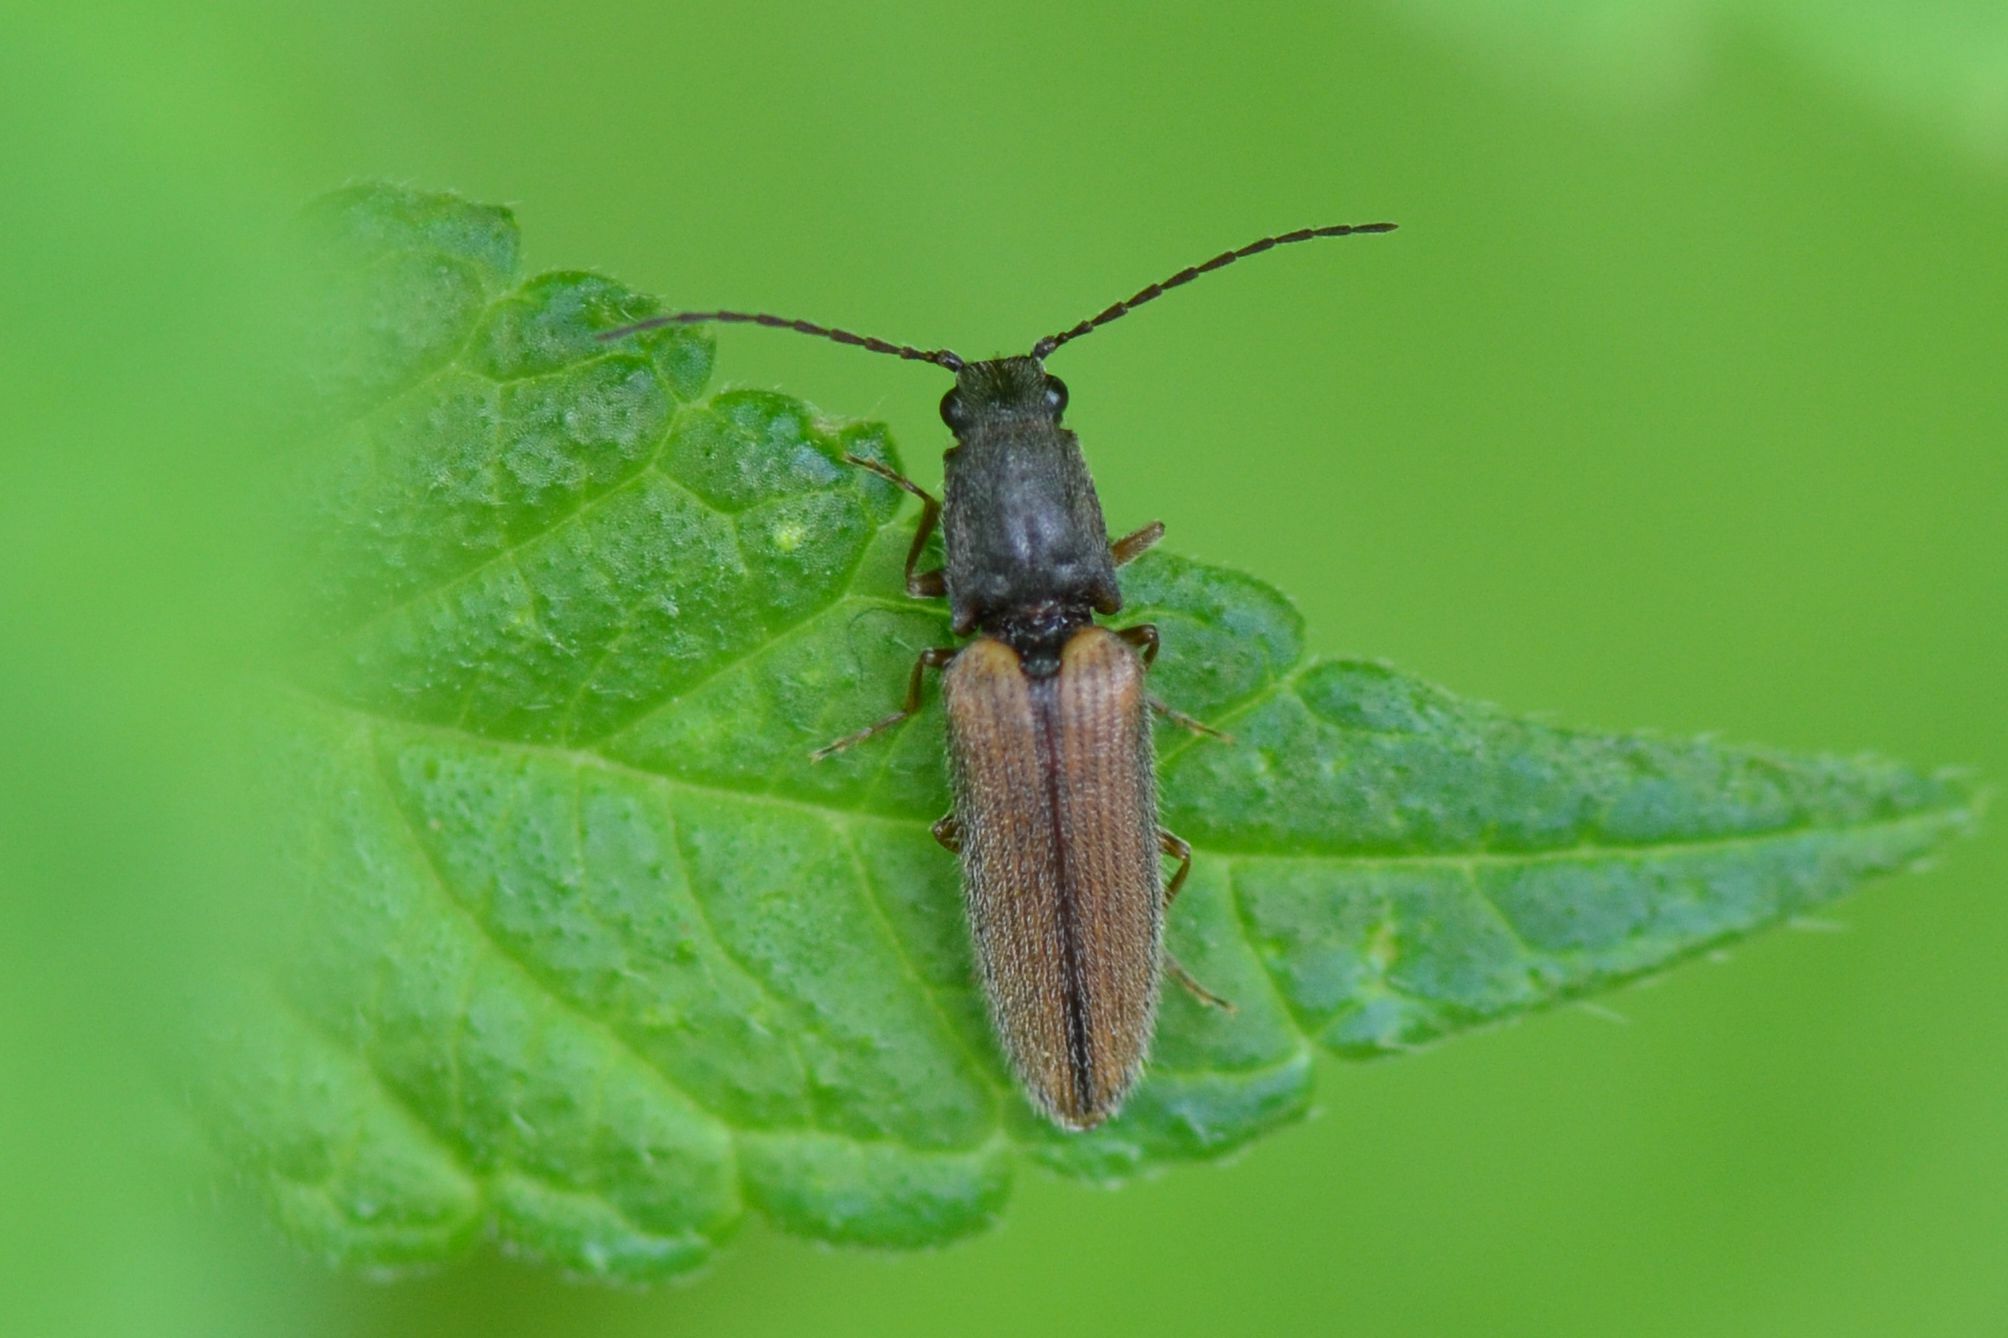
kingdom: Animalia
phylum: Arthropoda
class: Insecta
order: Coleoptera
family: Elateridae
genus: Athous
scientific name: Athous bicolor
